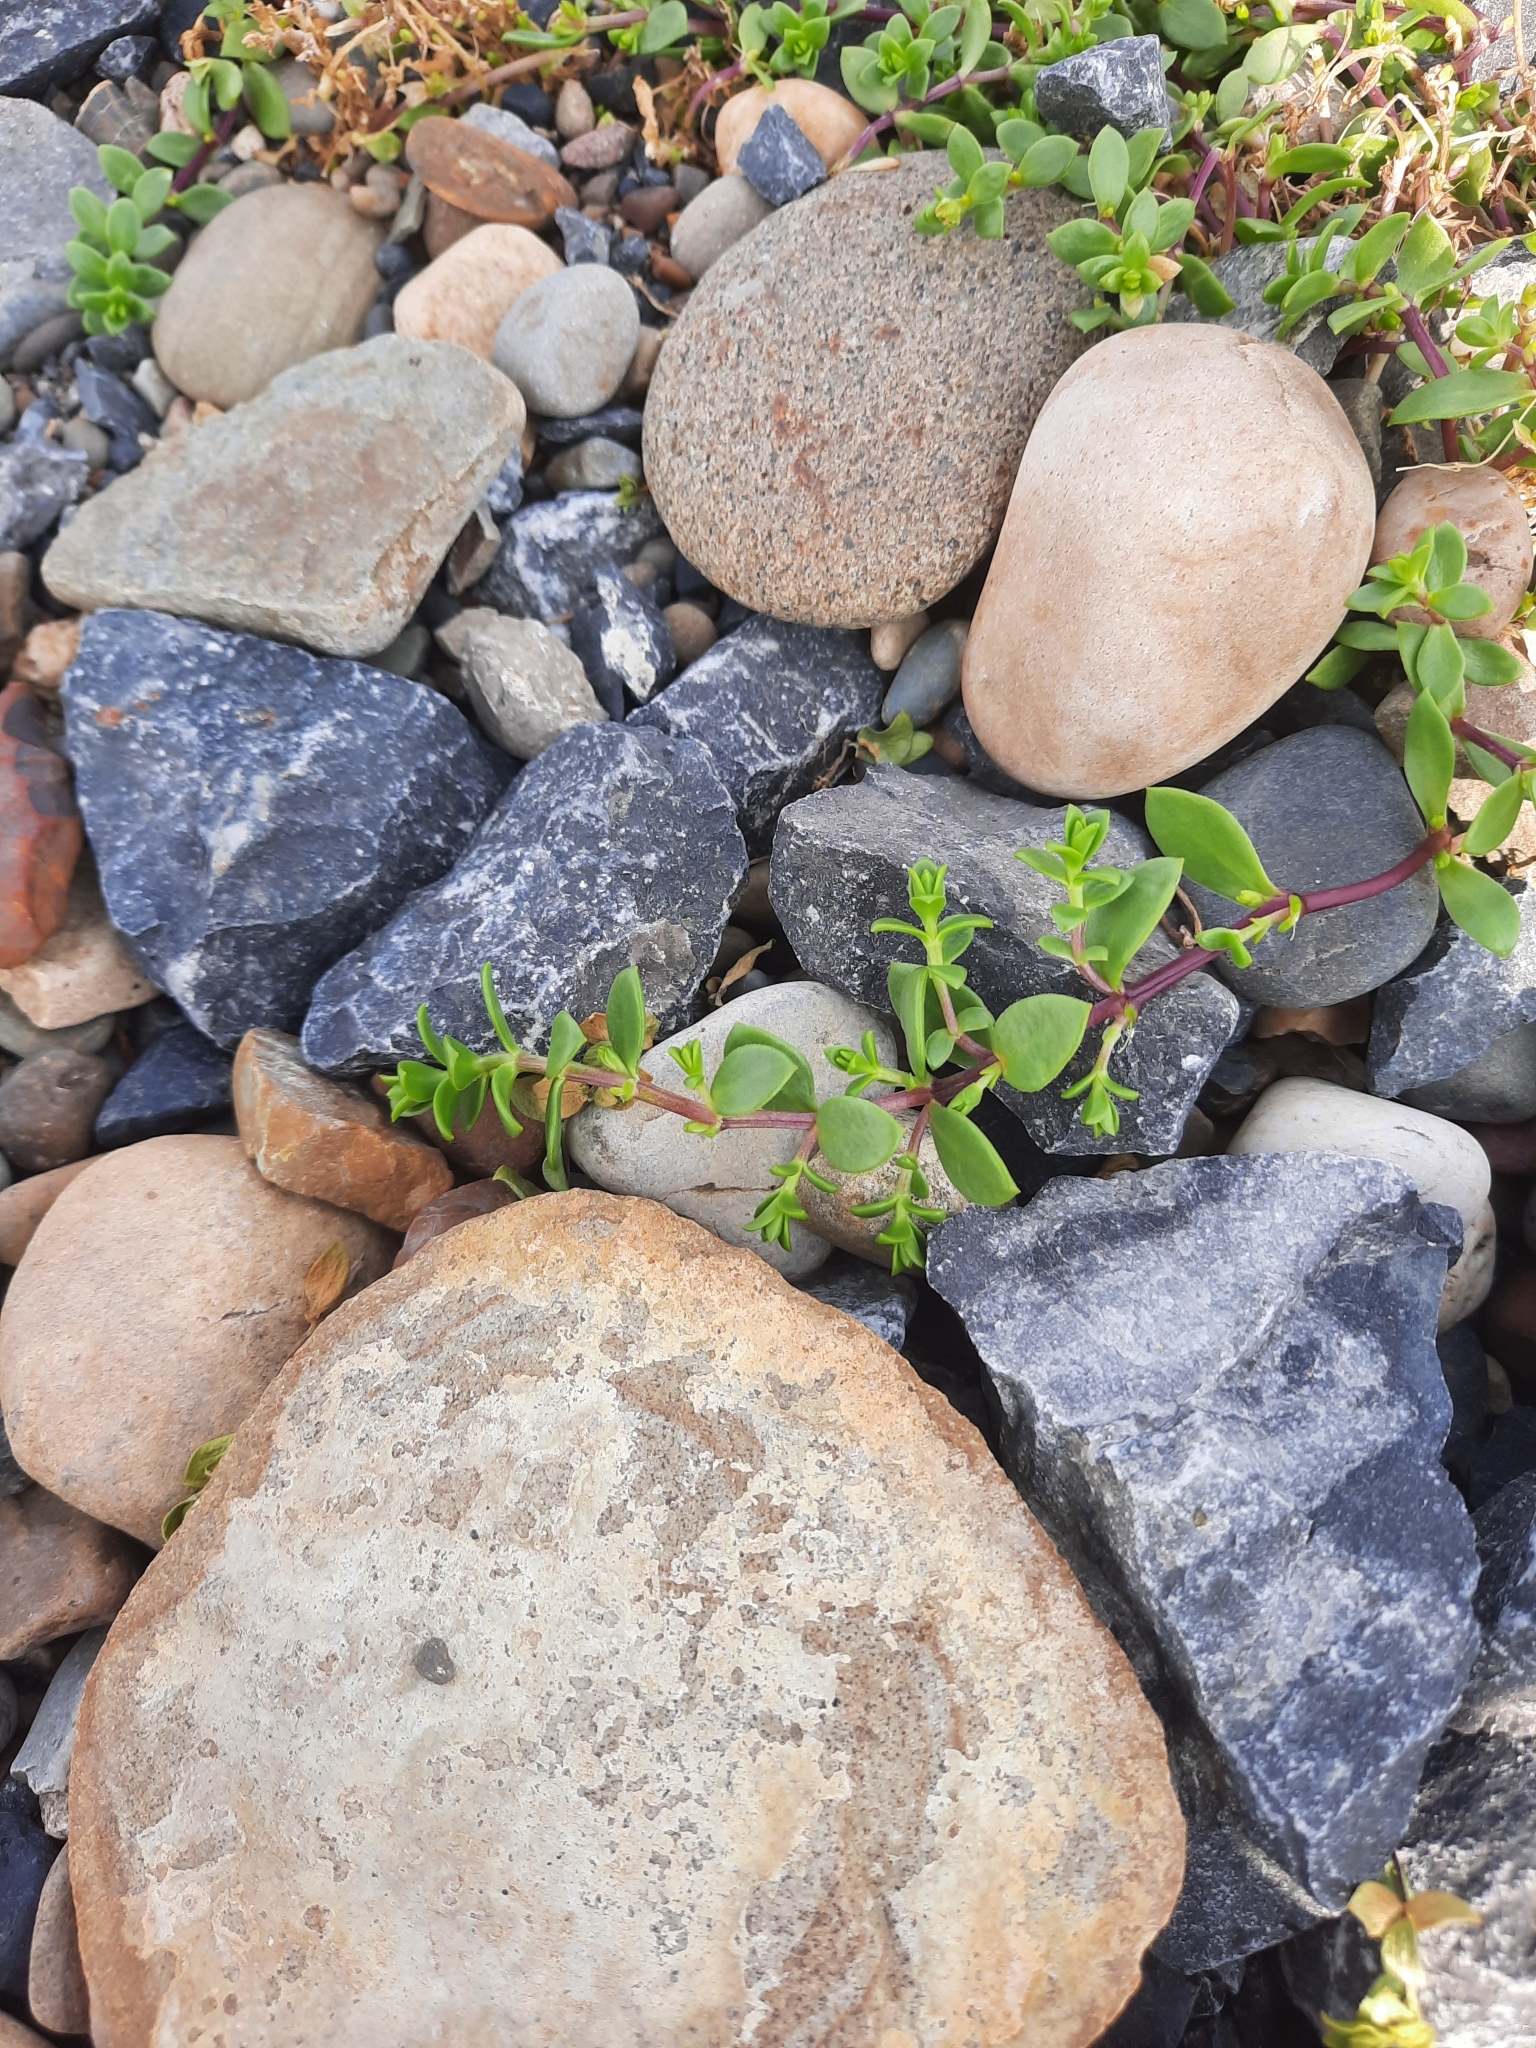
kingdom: Plantae
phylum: Tracheophyta
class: Magnoliopsida
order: Caryophyllales
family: Caryophyllaceae
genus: Honckenya
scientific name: Honckenya peploides
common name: Sea sandwort
